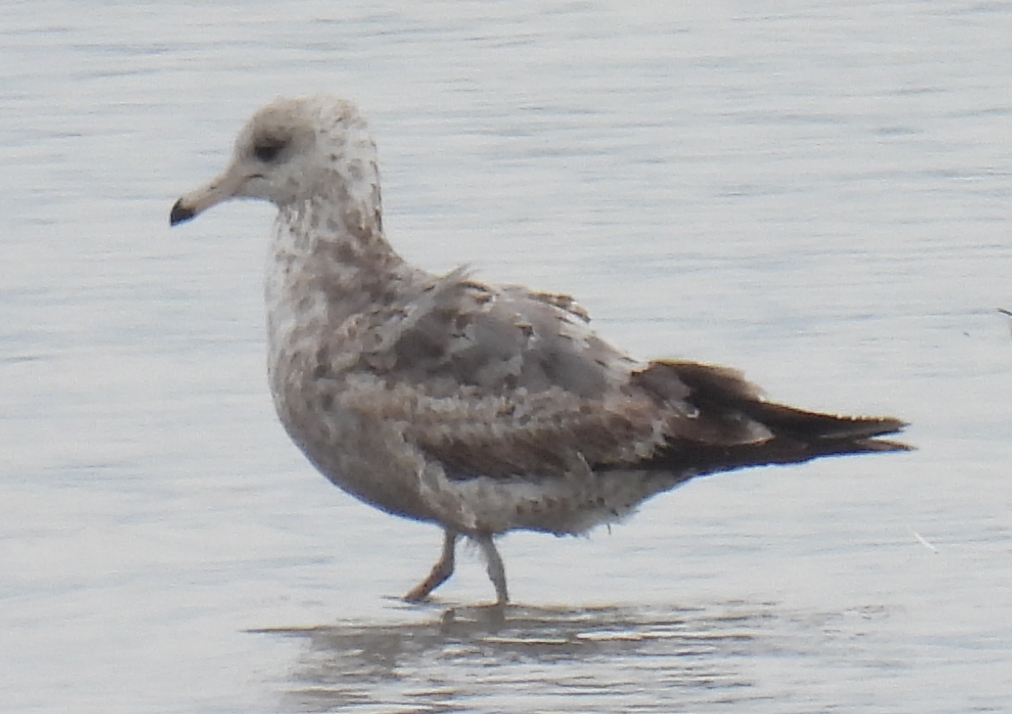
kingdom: Animalia
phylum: Chordata
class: Aves
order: Charadriiformes
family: Laridae
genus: Larus
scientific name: Larus californicus
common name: California gull
